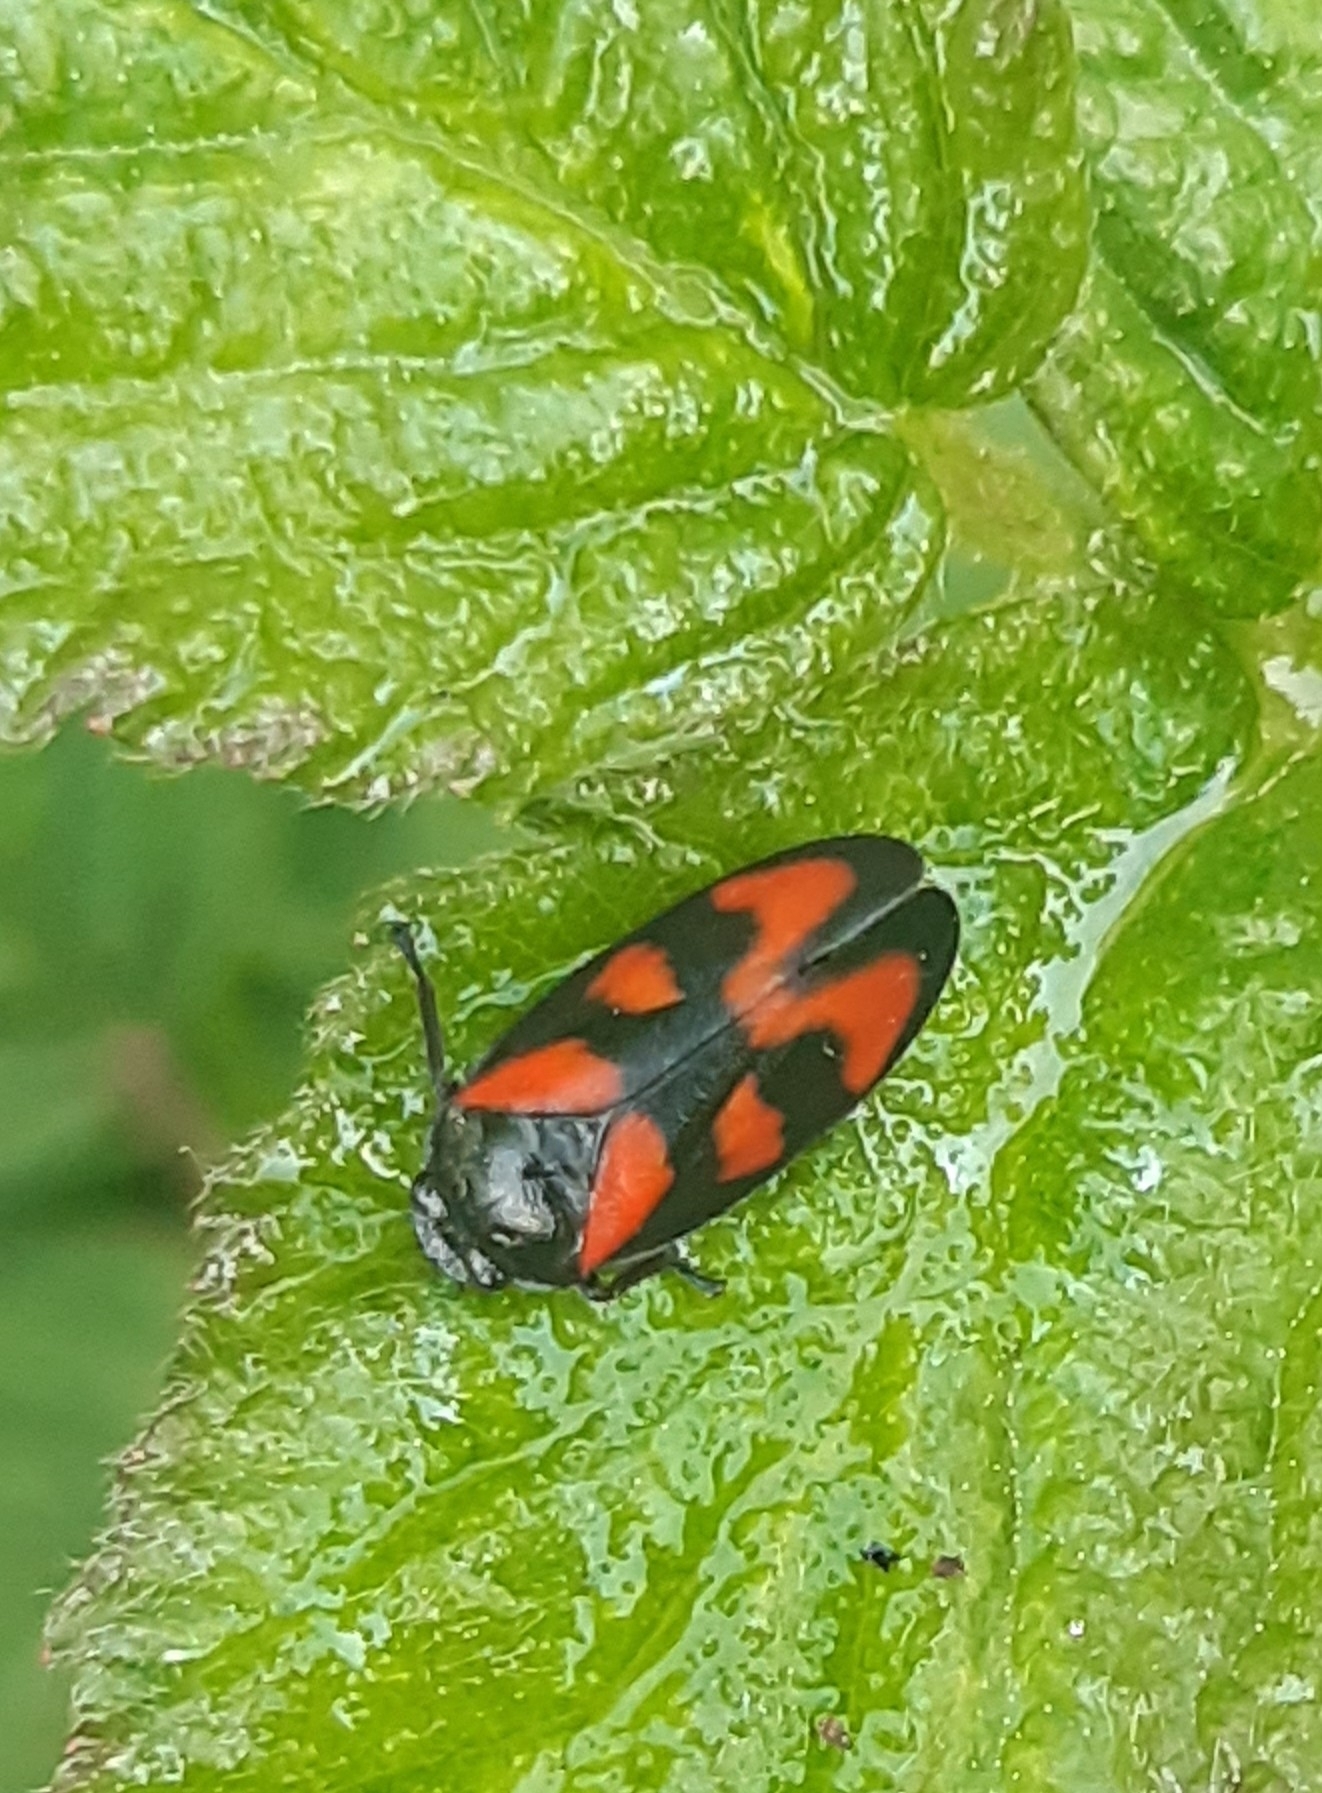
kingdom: Animalia
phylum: Arthropoda
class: Insecta
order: Hemiptera
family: Cercopidae
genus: Cercopis
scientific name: Cercopis vulnerata
